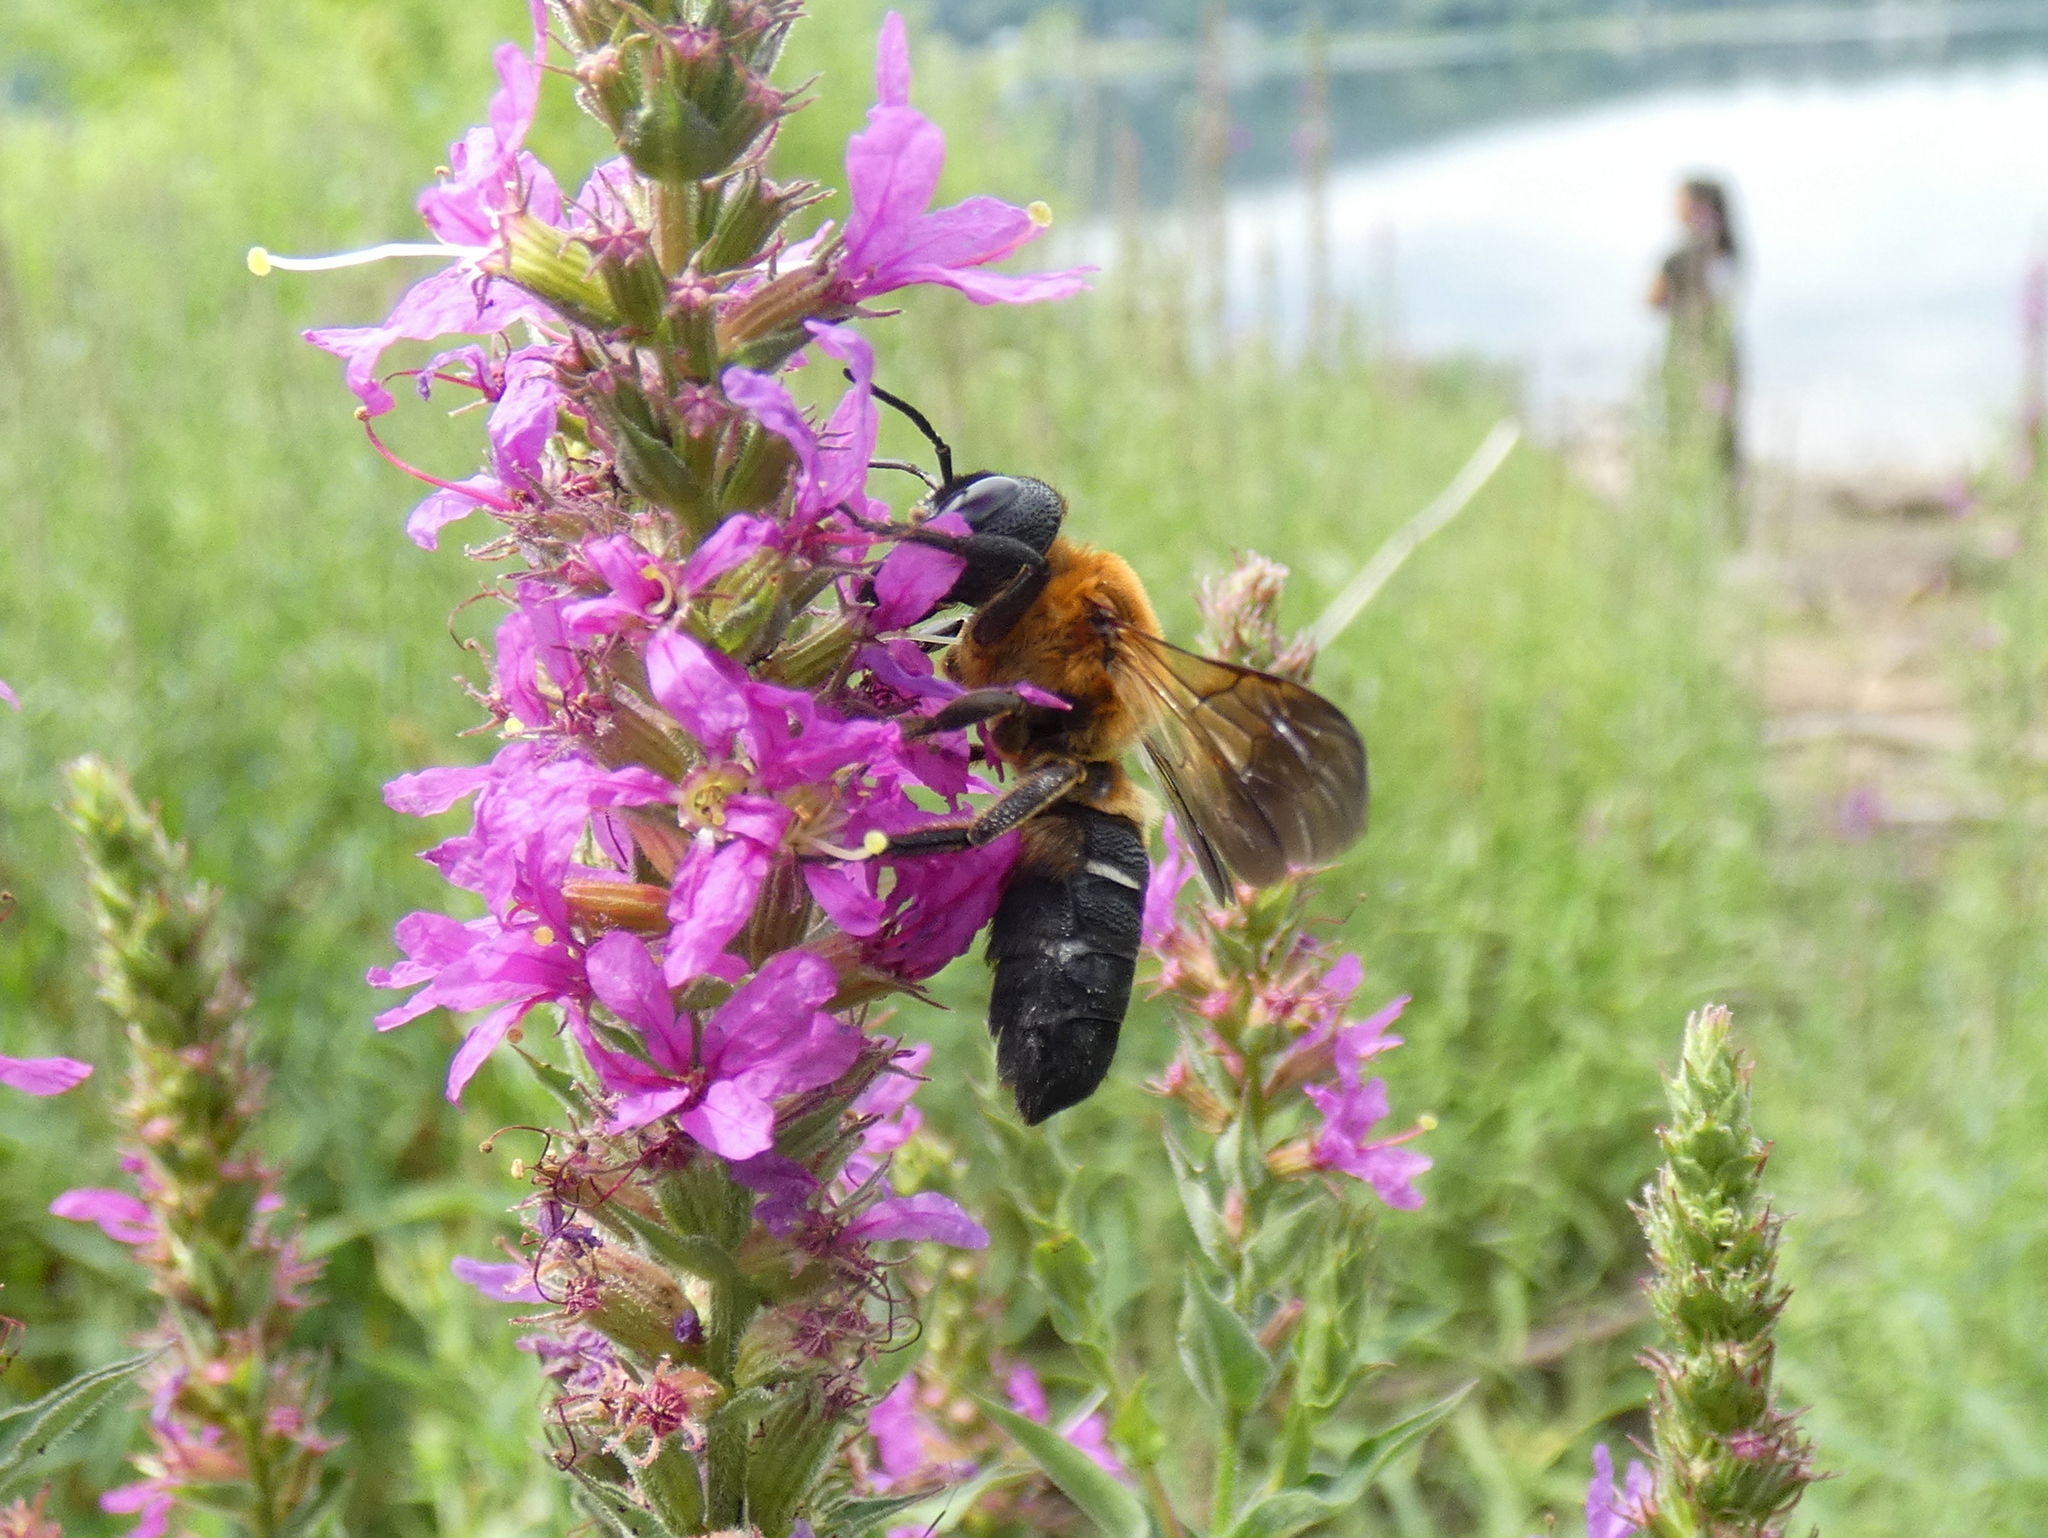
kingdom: Animalia
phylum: Arthropoda
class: Insecta
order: Hymenoptera
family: Megachilidae
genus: Megachile
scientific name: Megachile sculpturalis
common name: Sculptured resin bee
